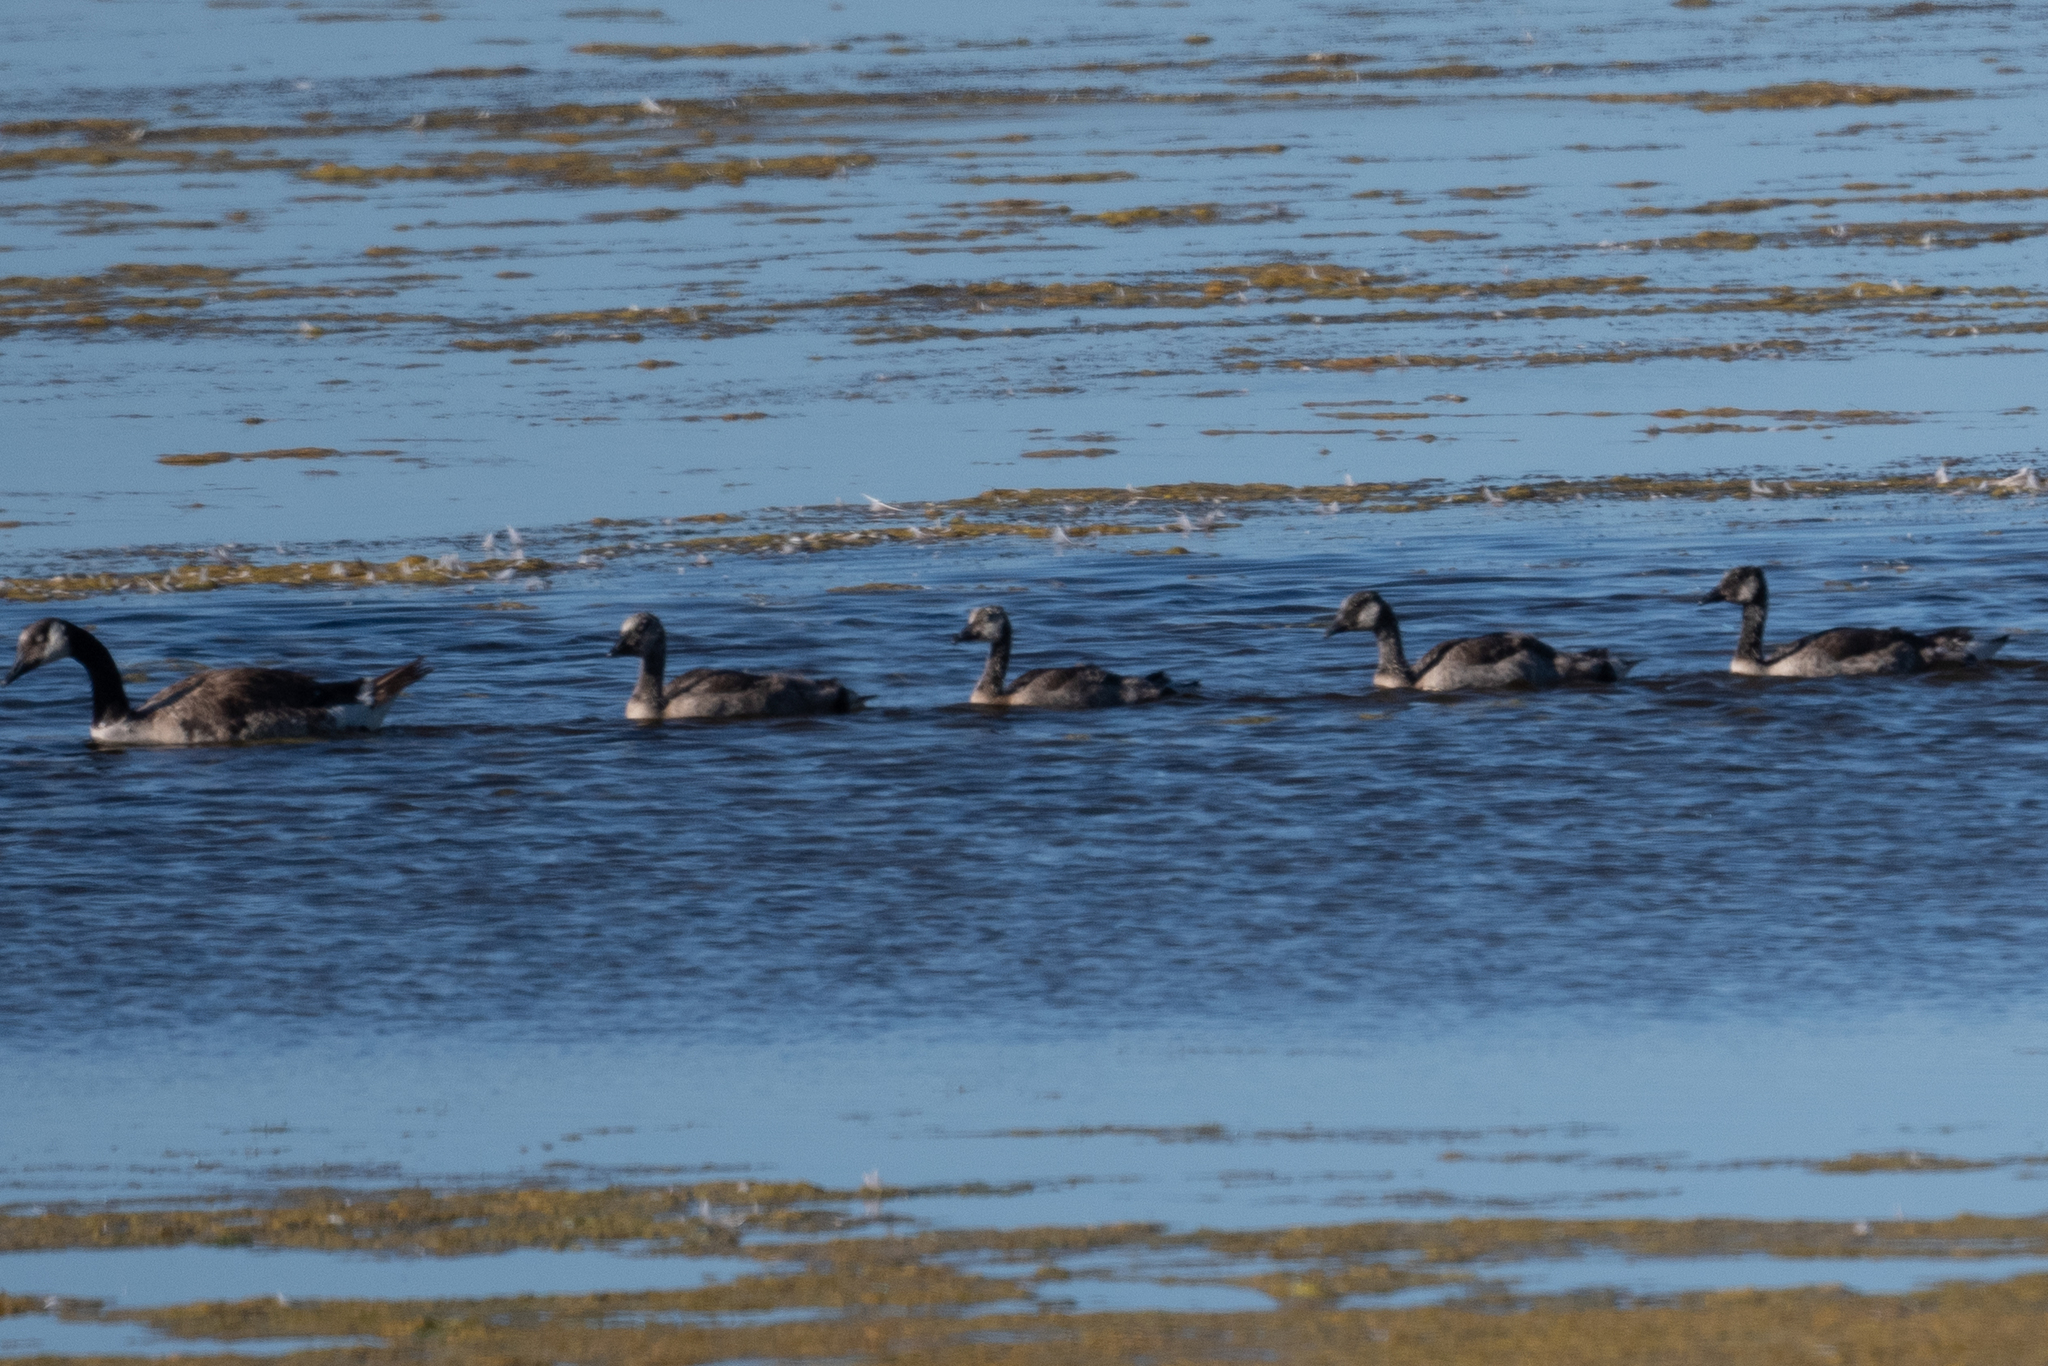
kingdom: Animalia
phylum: Chordata
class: Aves
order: Anseriformes
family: Anatidae
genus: Branta
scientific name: Branta canadensis
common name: Canada goose
